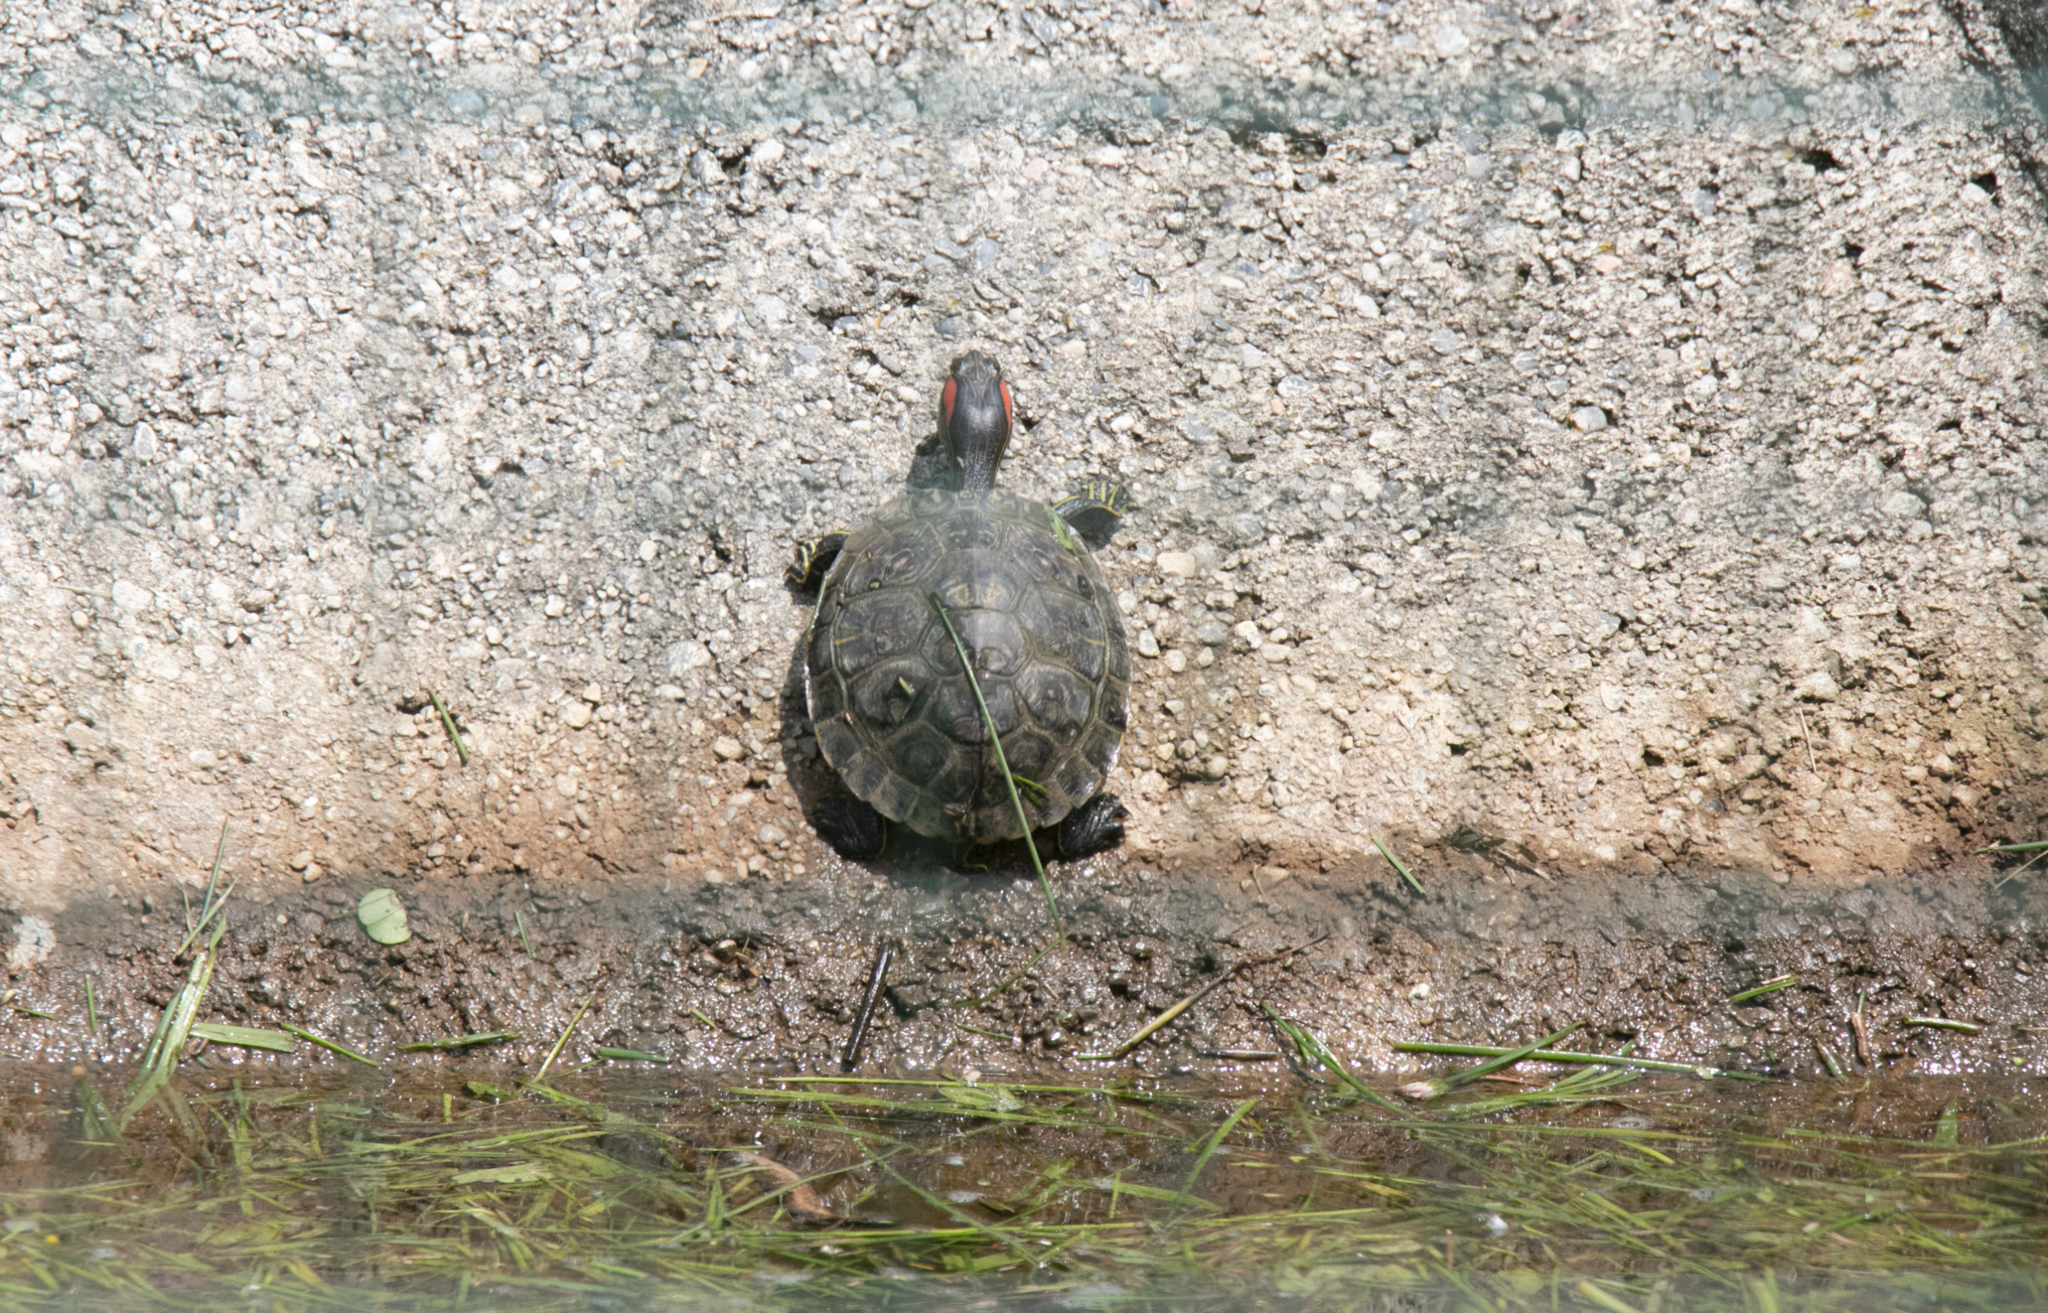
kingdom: Animalia
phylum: Chordata
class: Testudines
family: Emydidae
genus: Trachemys
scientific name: Trachemys scripta
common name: Slider
